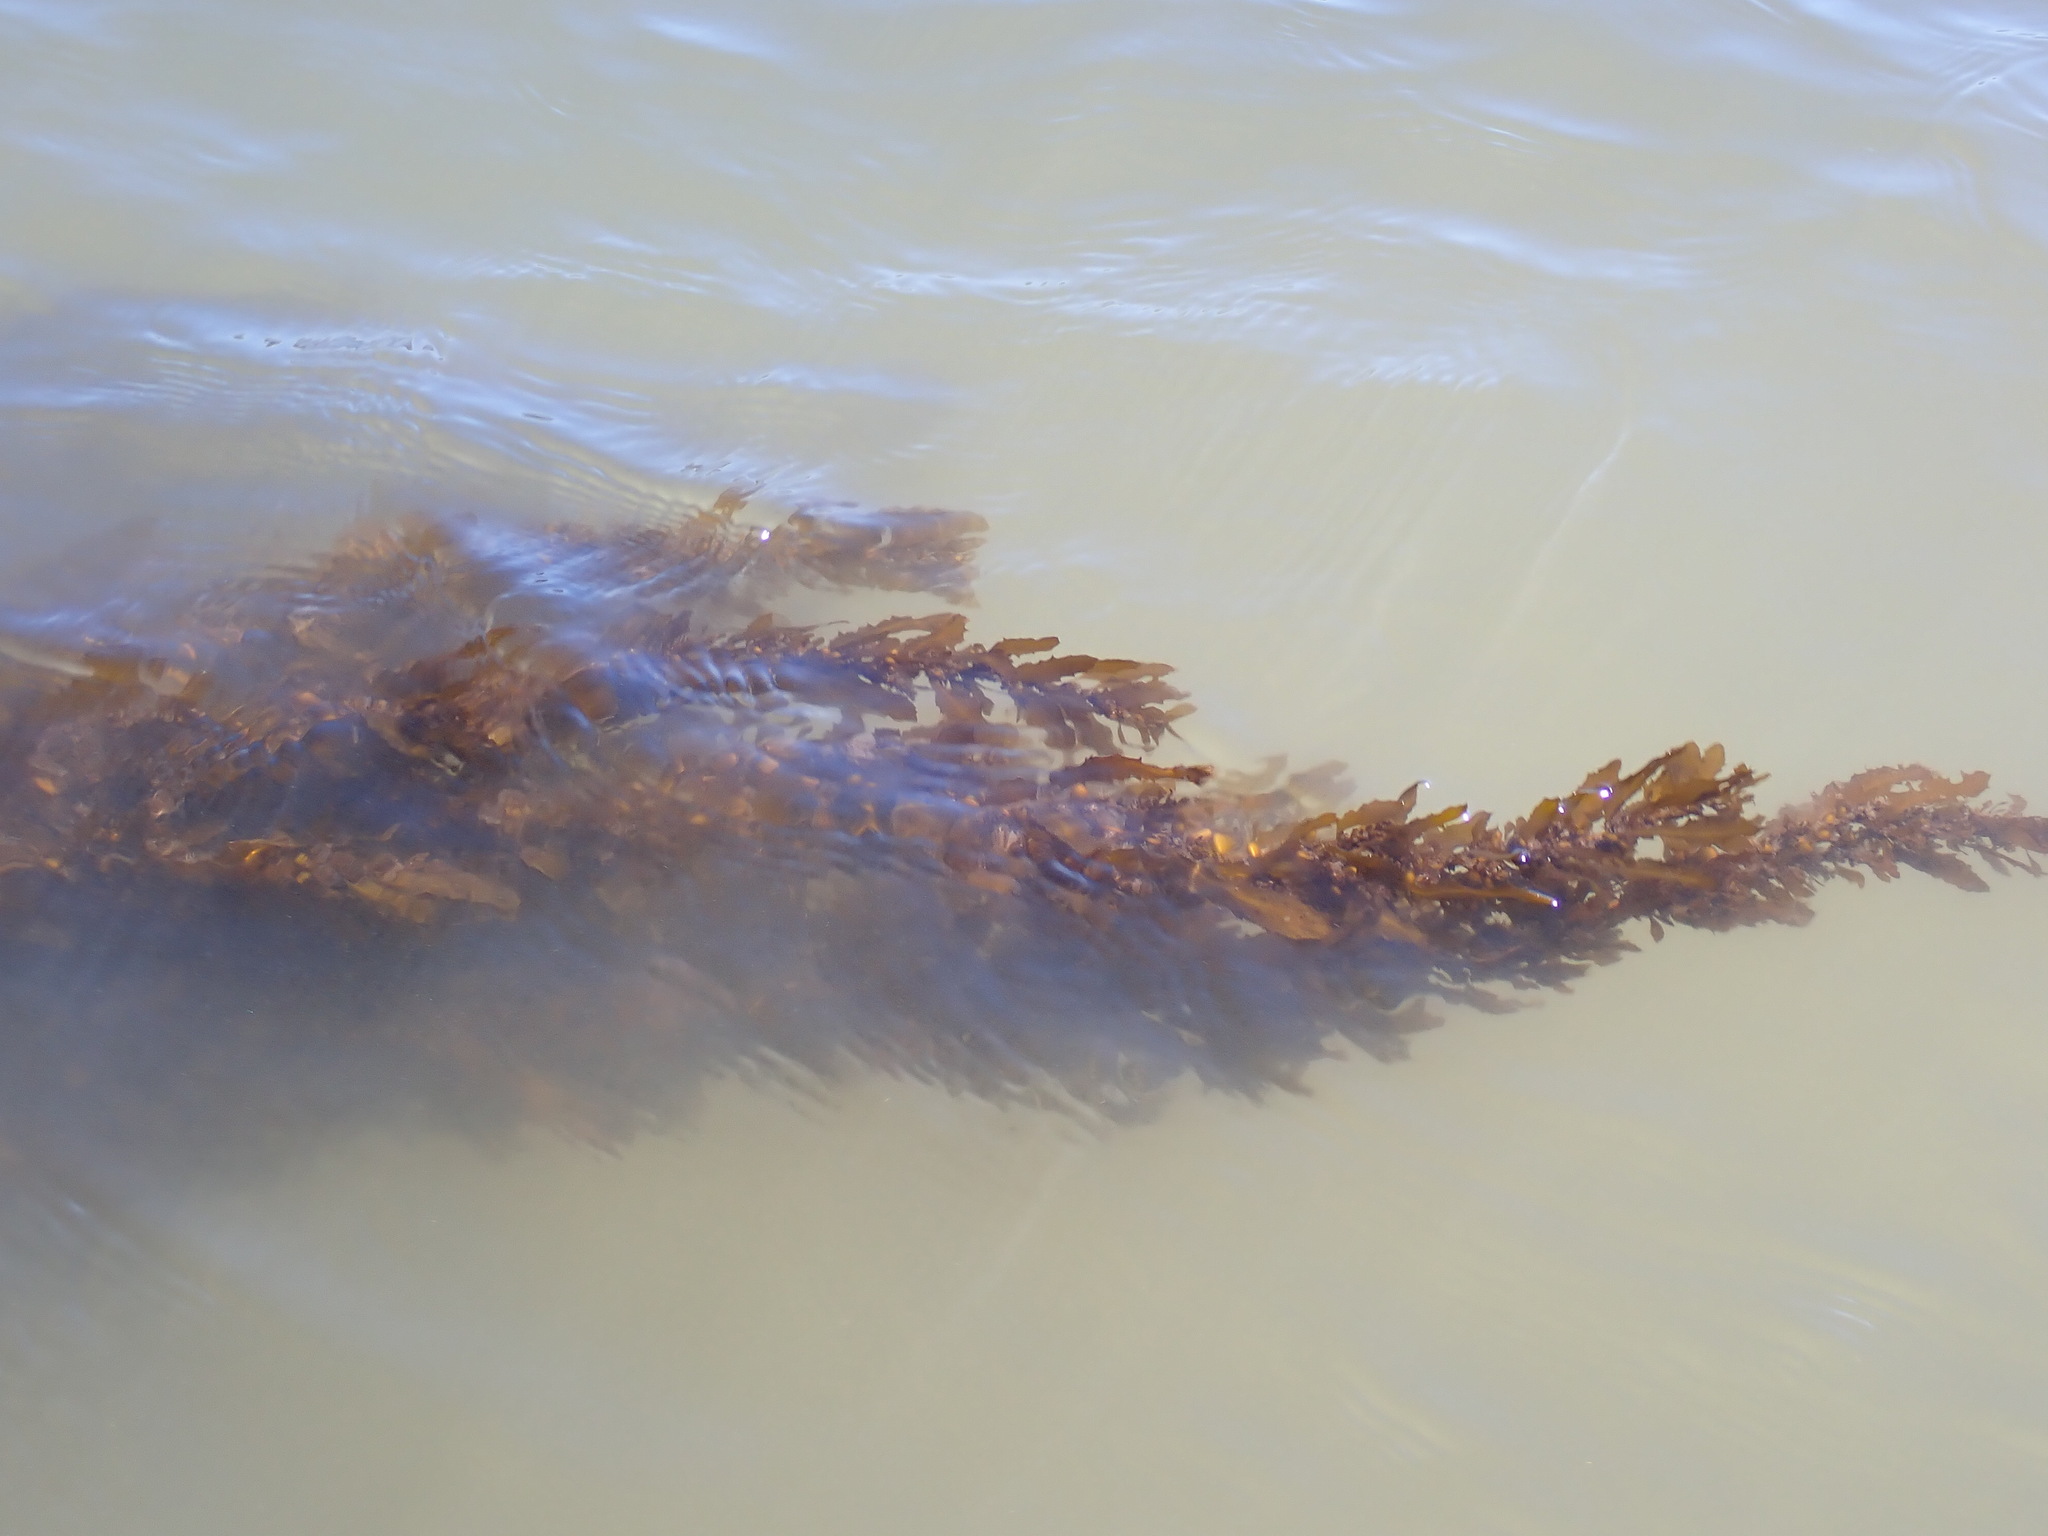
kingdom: Chromista
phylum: Ochrophyta
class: Phaeophyceae
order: Fucales
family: Sargassaceae
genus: Sargassum
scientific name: Sargassum sinclairii
